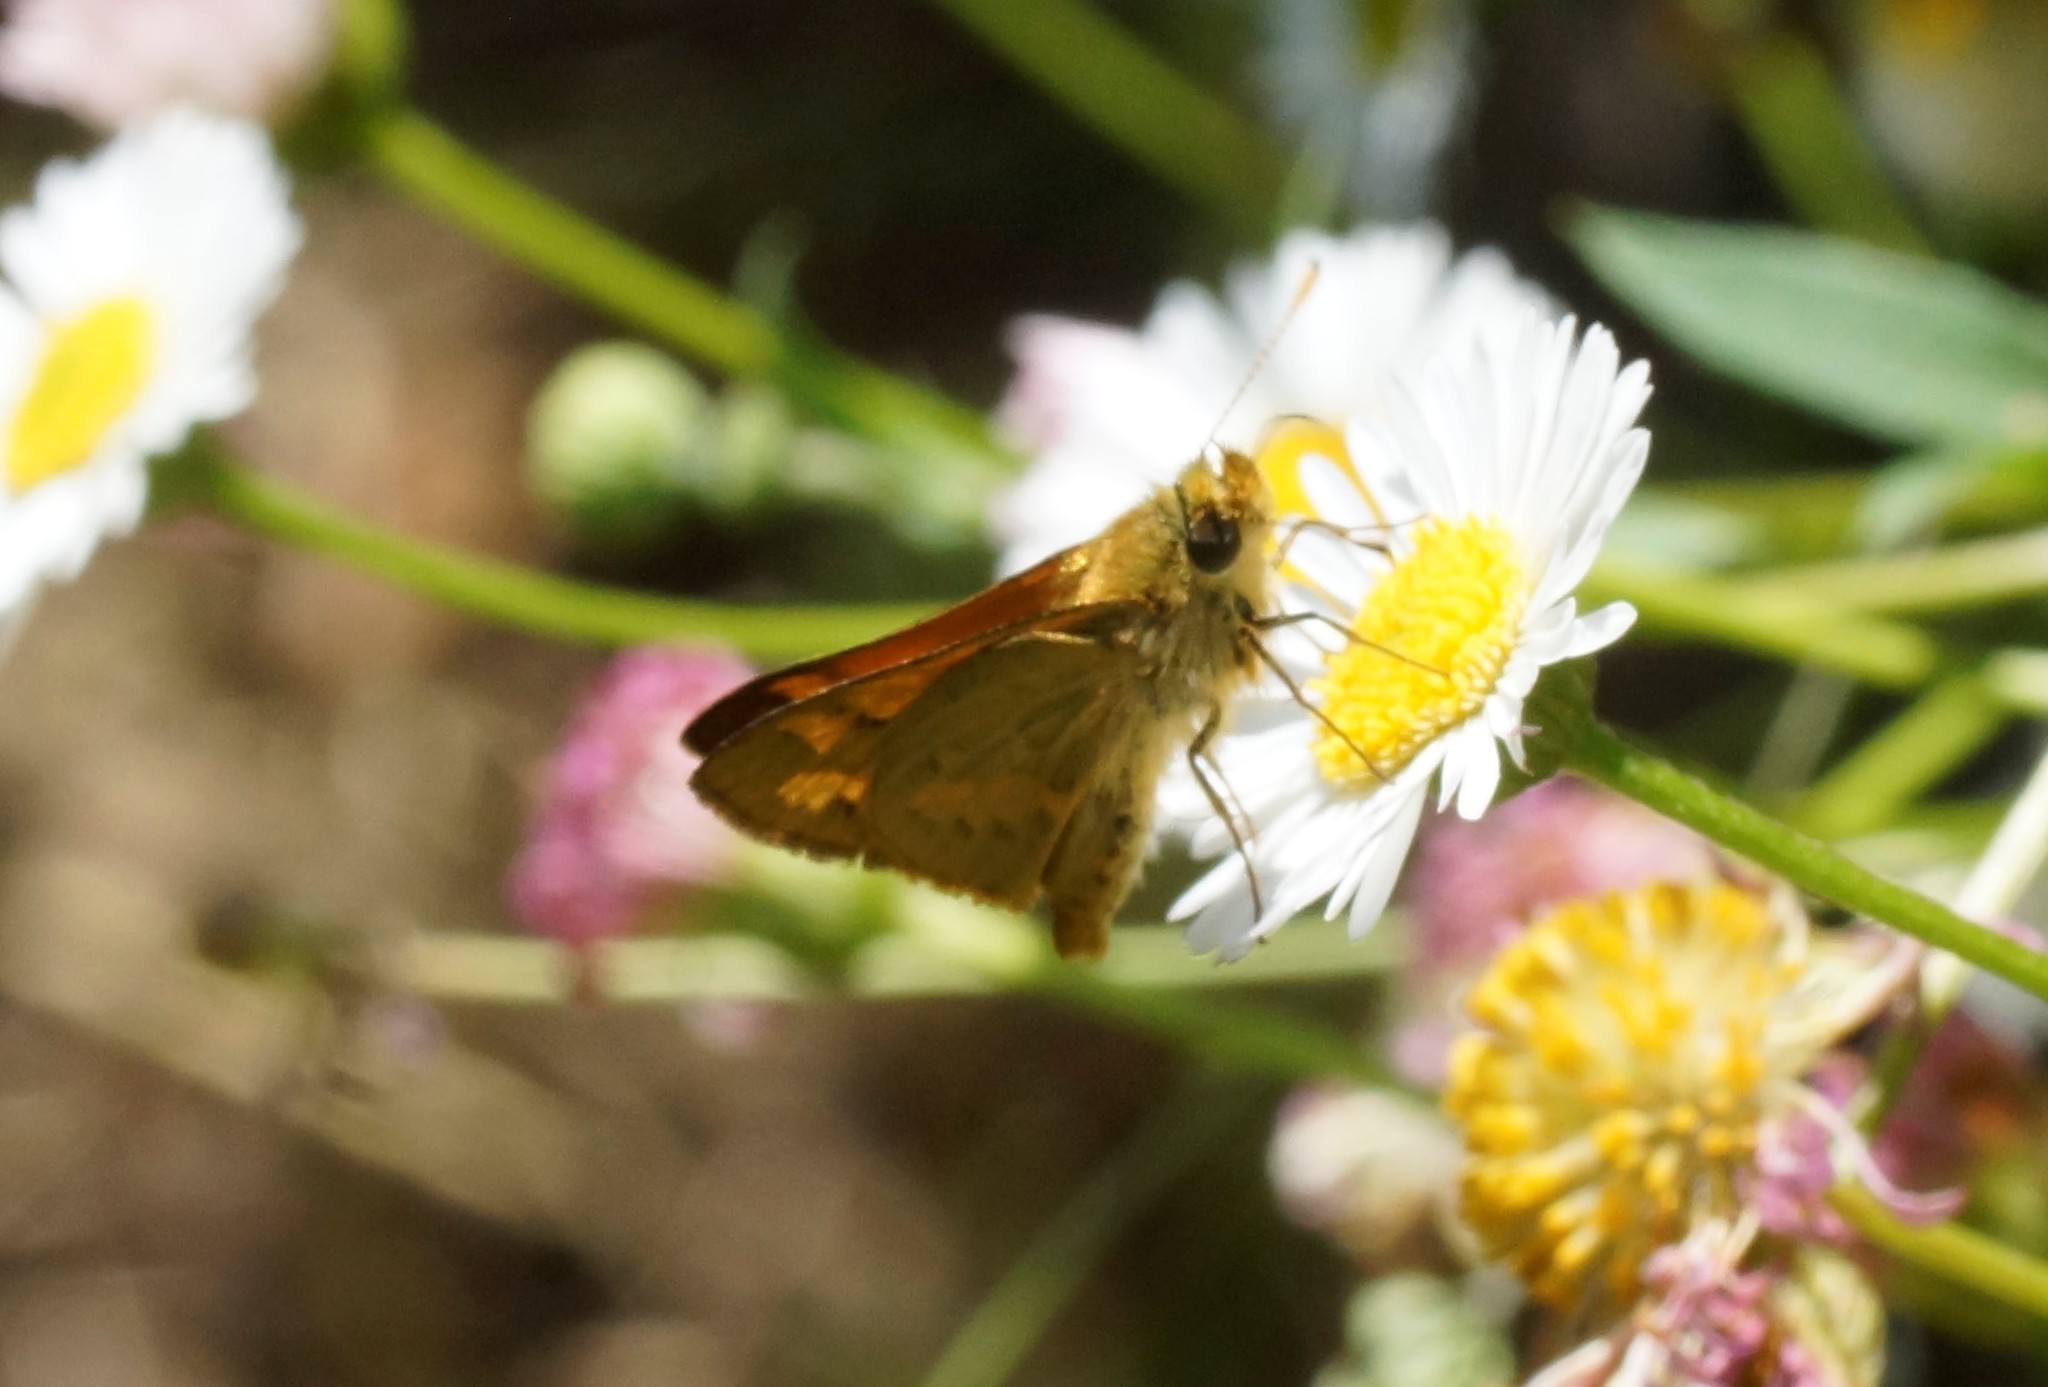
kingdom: Animalia
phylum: Arthropoda
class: Insecta
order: Lepidoptera
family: Hesperiidae
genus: Ocybadistes
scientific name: Ocybadistes walkeri
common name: Yellow-banded dart
